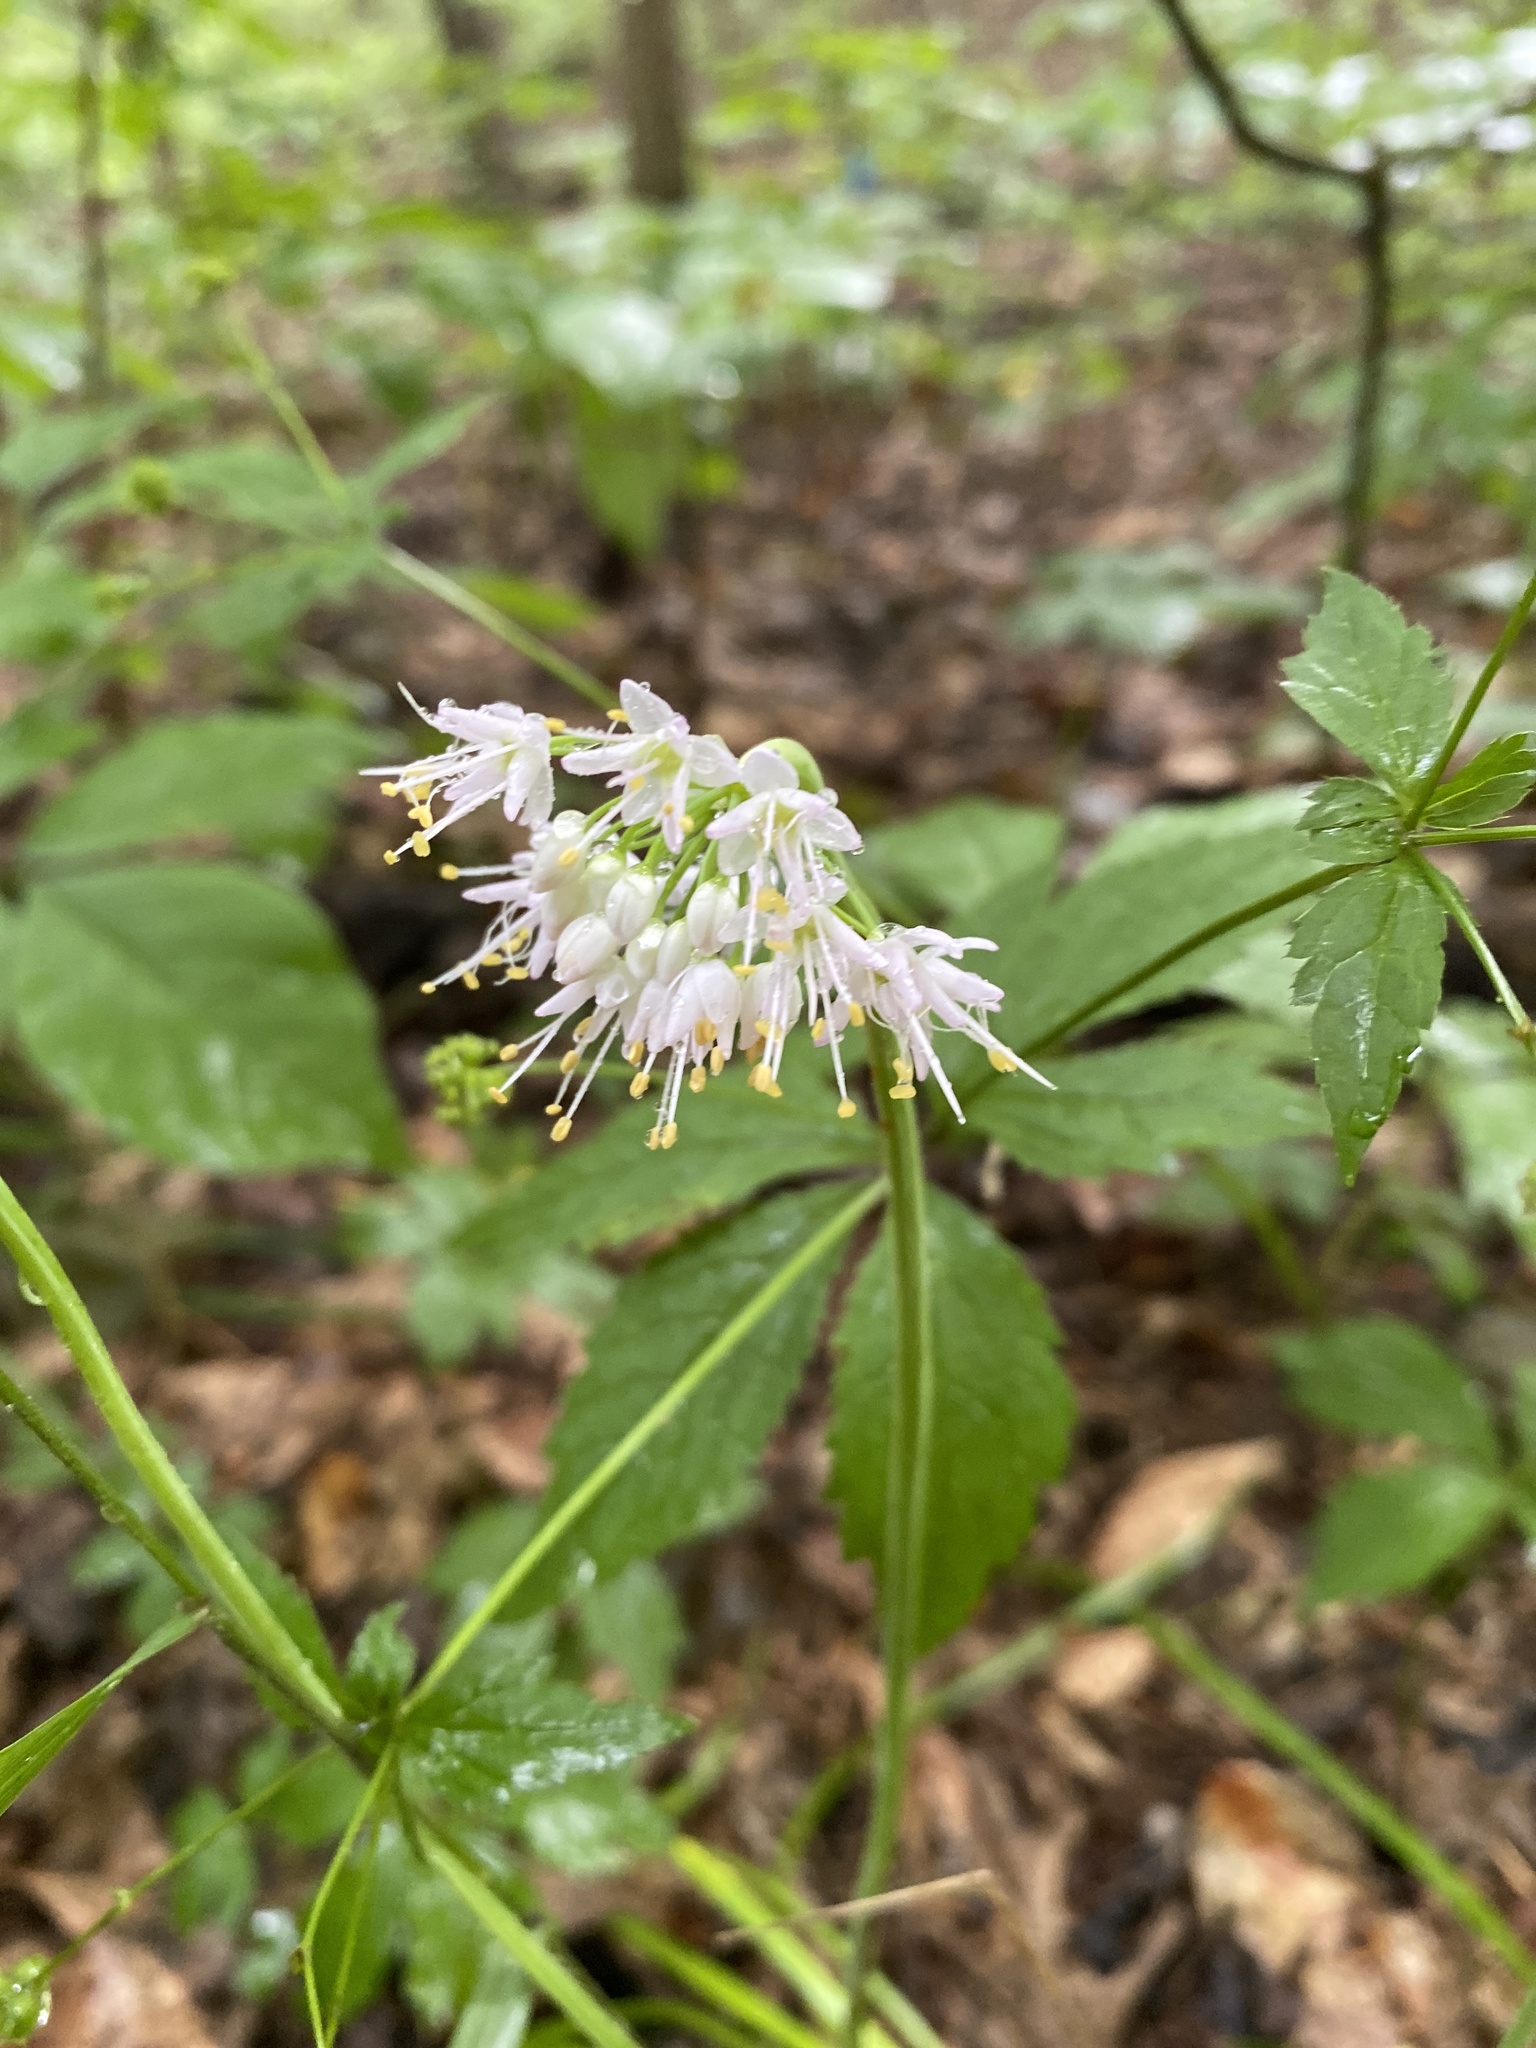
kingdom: Plantae
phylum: Tracheophyta
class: Liliopsida
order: Asparagales
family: Amaryllidaceae
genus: Allium
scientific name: Allium cernuum
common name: Nodding onion
